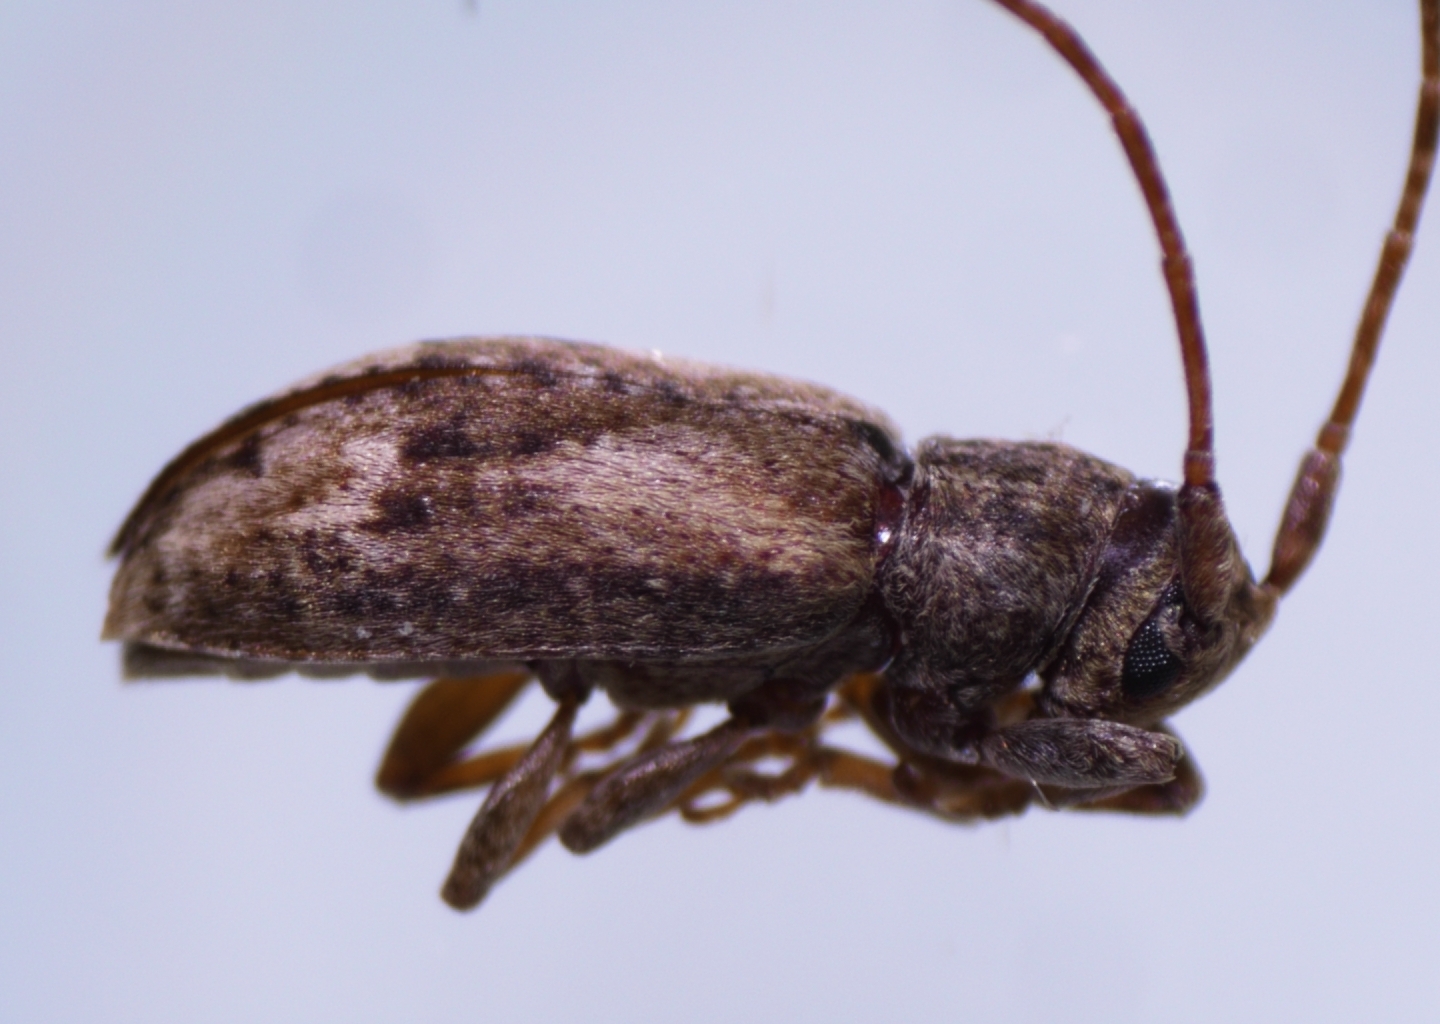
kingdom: Animalia
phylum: Arthropoda
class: Insecta
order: Coleoptera
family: Cerambycidae
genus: Pterolophia
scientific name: Pterolophia lateripicta
